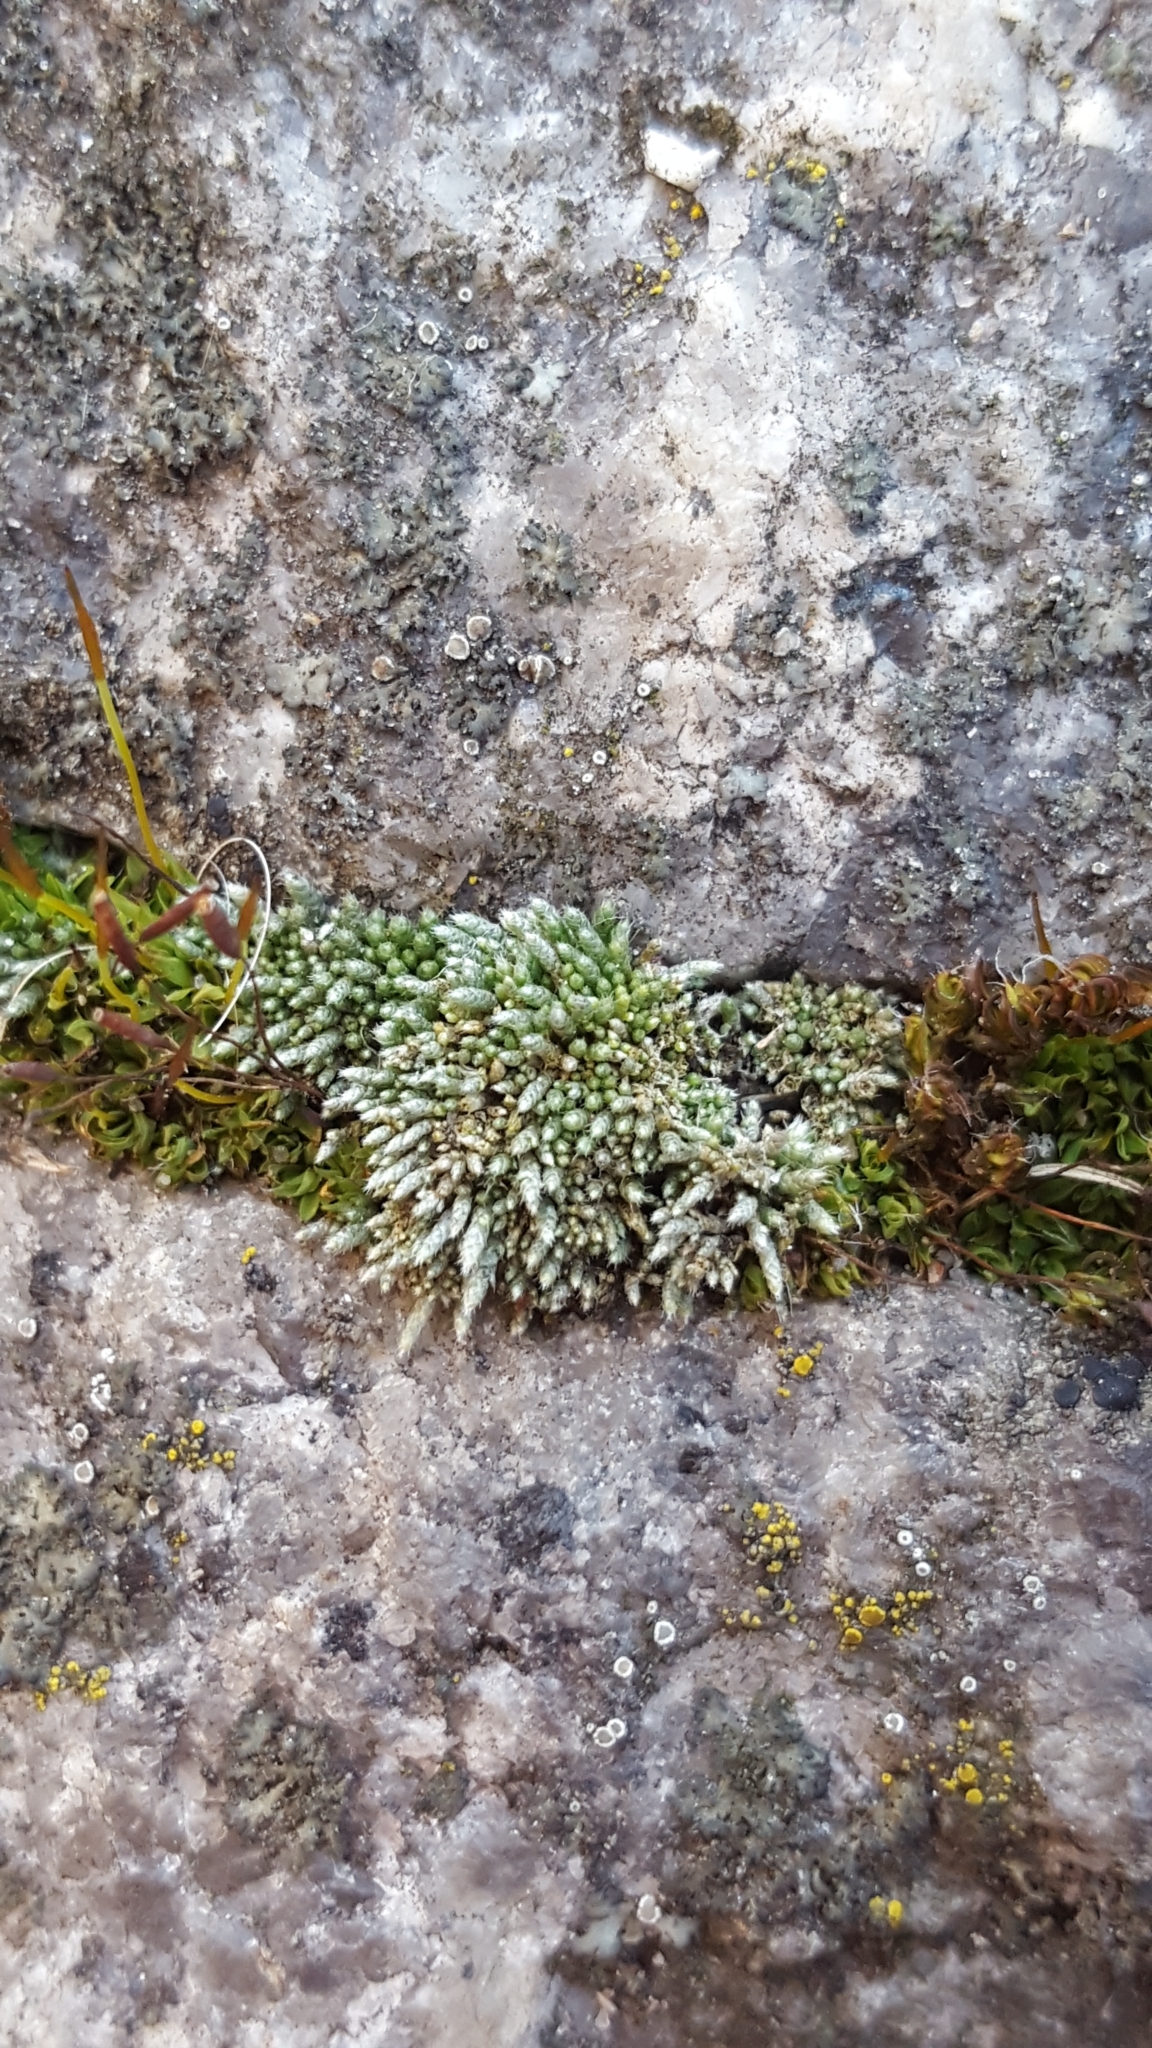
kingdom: Plantae
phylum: Bryophyta
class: Bryopsida
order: Bryales
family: Bryaceae
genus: Bryum
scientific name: Bryum argenteum
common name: Silver-moss
